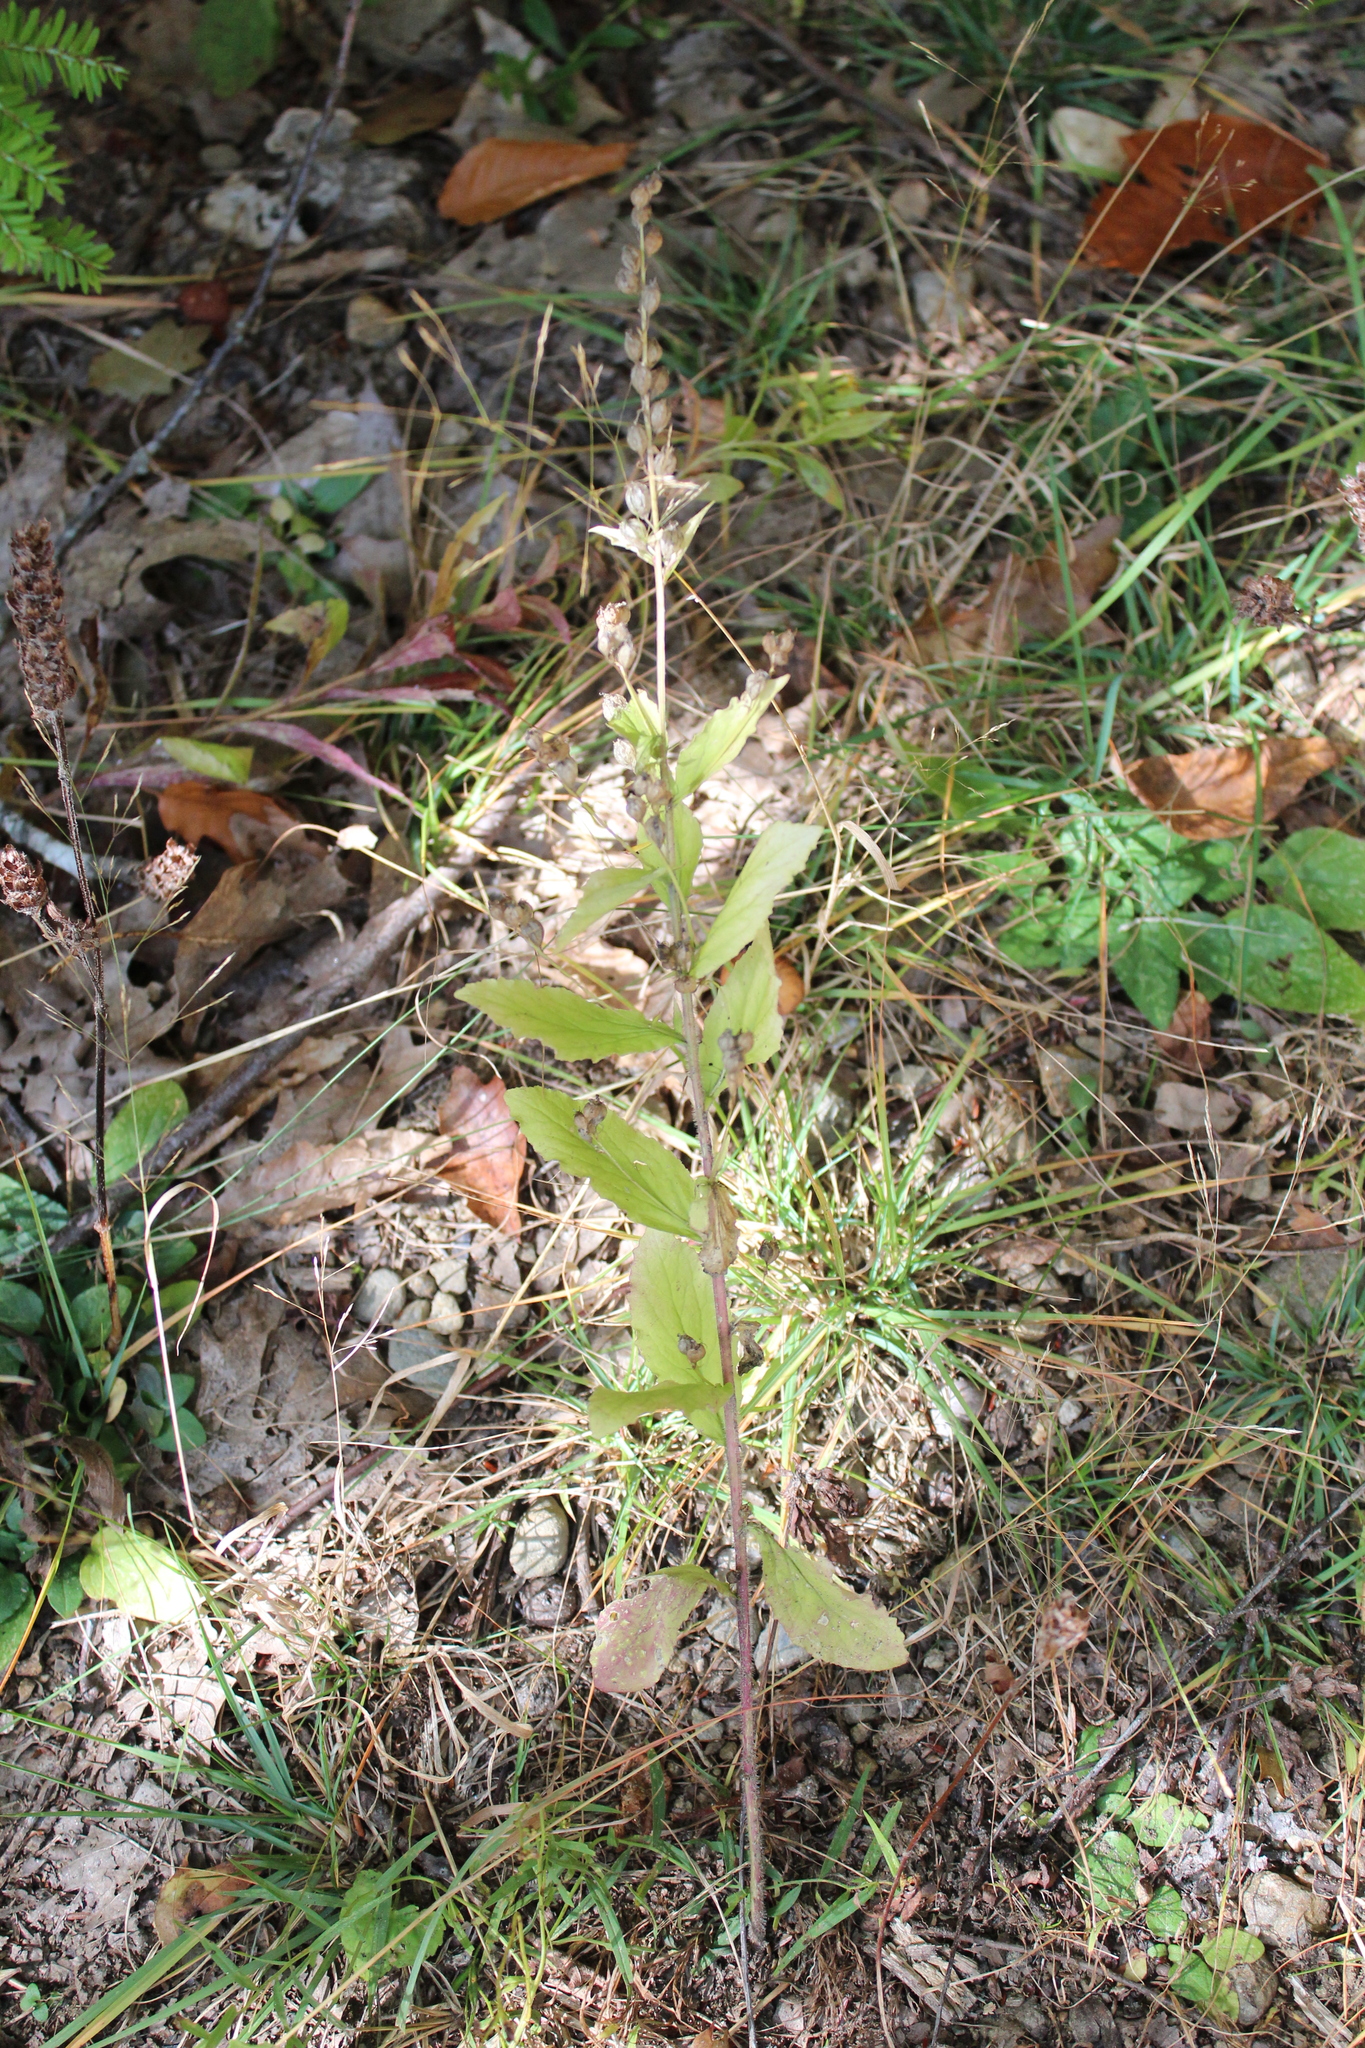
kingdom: Plantae
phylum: Tracheophyta
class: Magnoliopsida
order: Asterales
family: Campanulaceae
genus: Lobelia
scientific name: Lobelia inflata
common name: Indian tobacco
